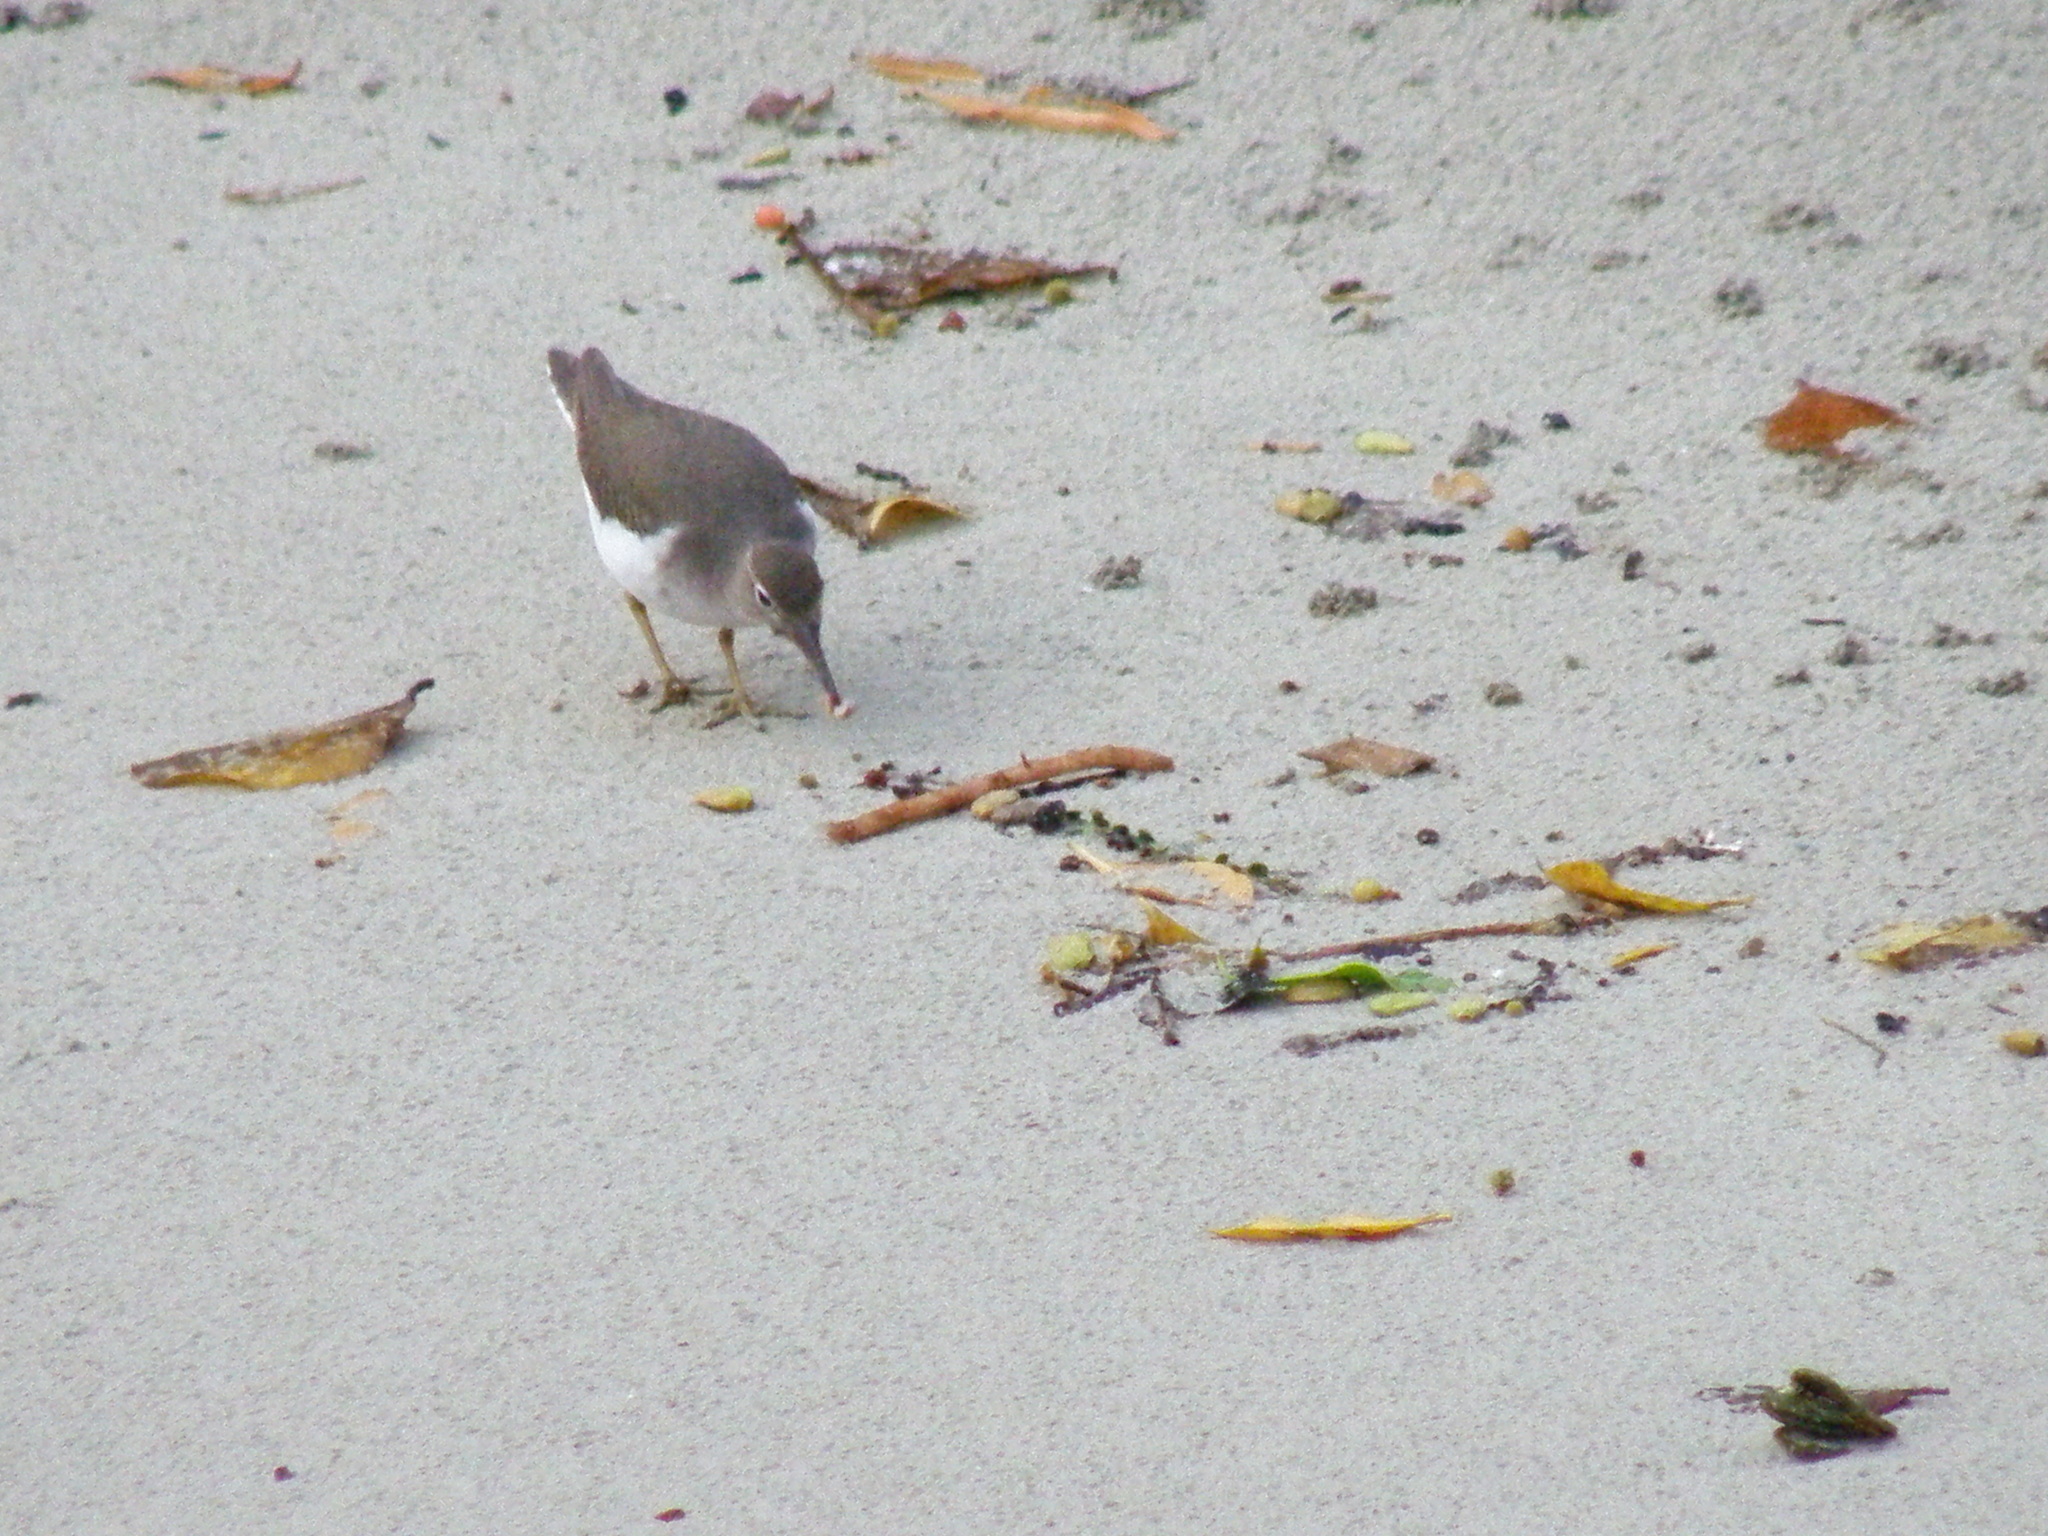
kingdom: Animalia
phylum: Chordata
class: Aves
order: Charadriiformes
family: Scolopacidae
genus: Actitis
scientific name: Actitis macularius
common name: Spotted sandpiper
